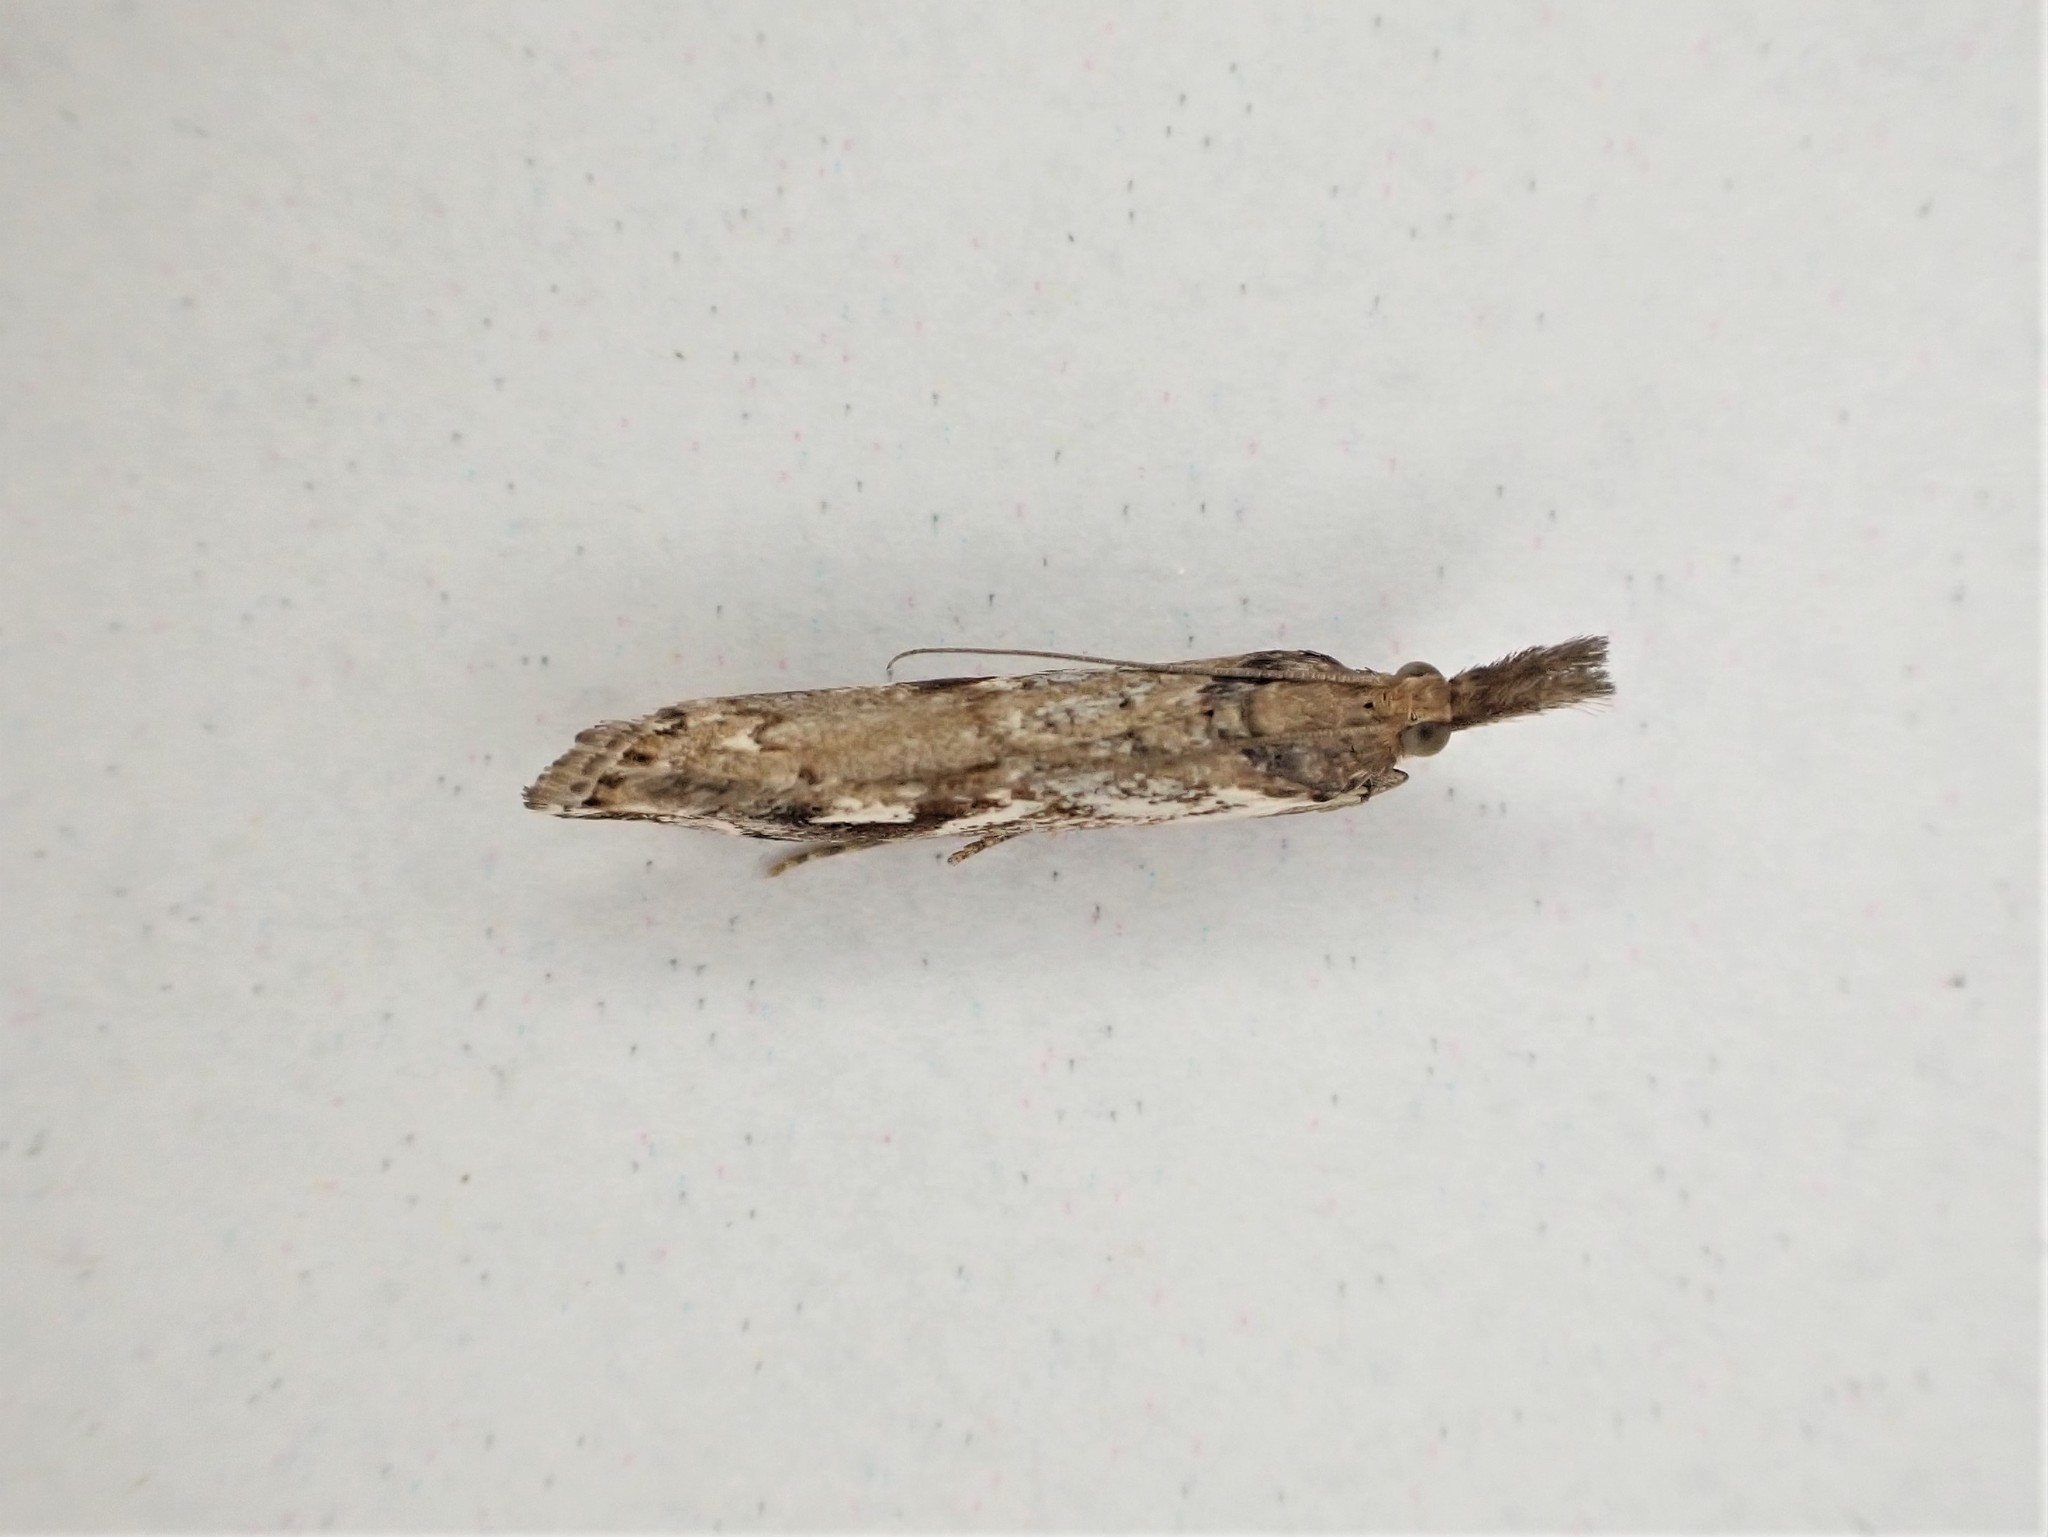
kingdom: Animalia
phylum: Arthropoda
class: Insecta
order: Lepidoptera
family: Crambidae
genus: Orocrambus
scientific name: Orocrambus vulgaris
